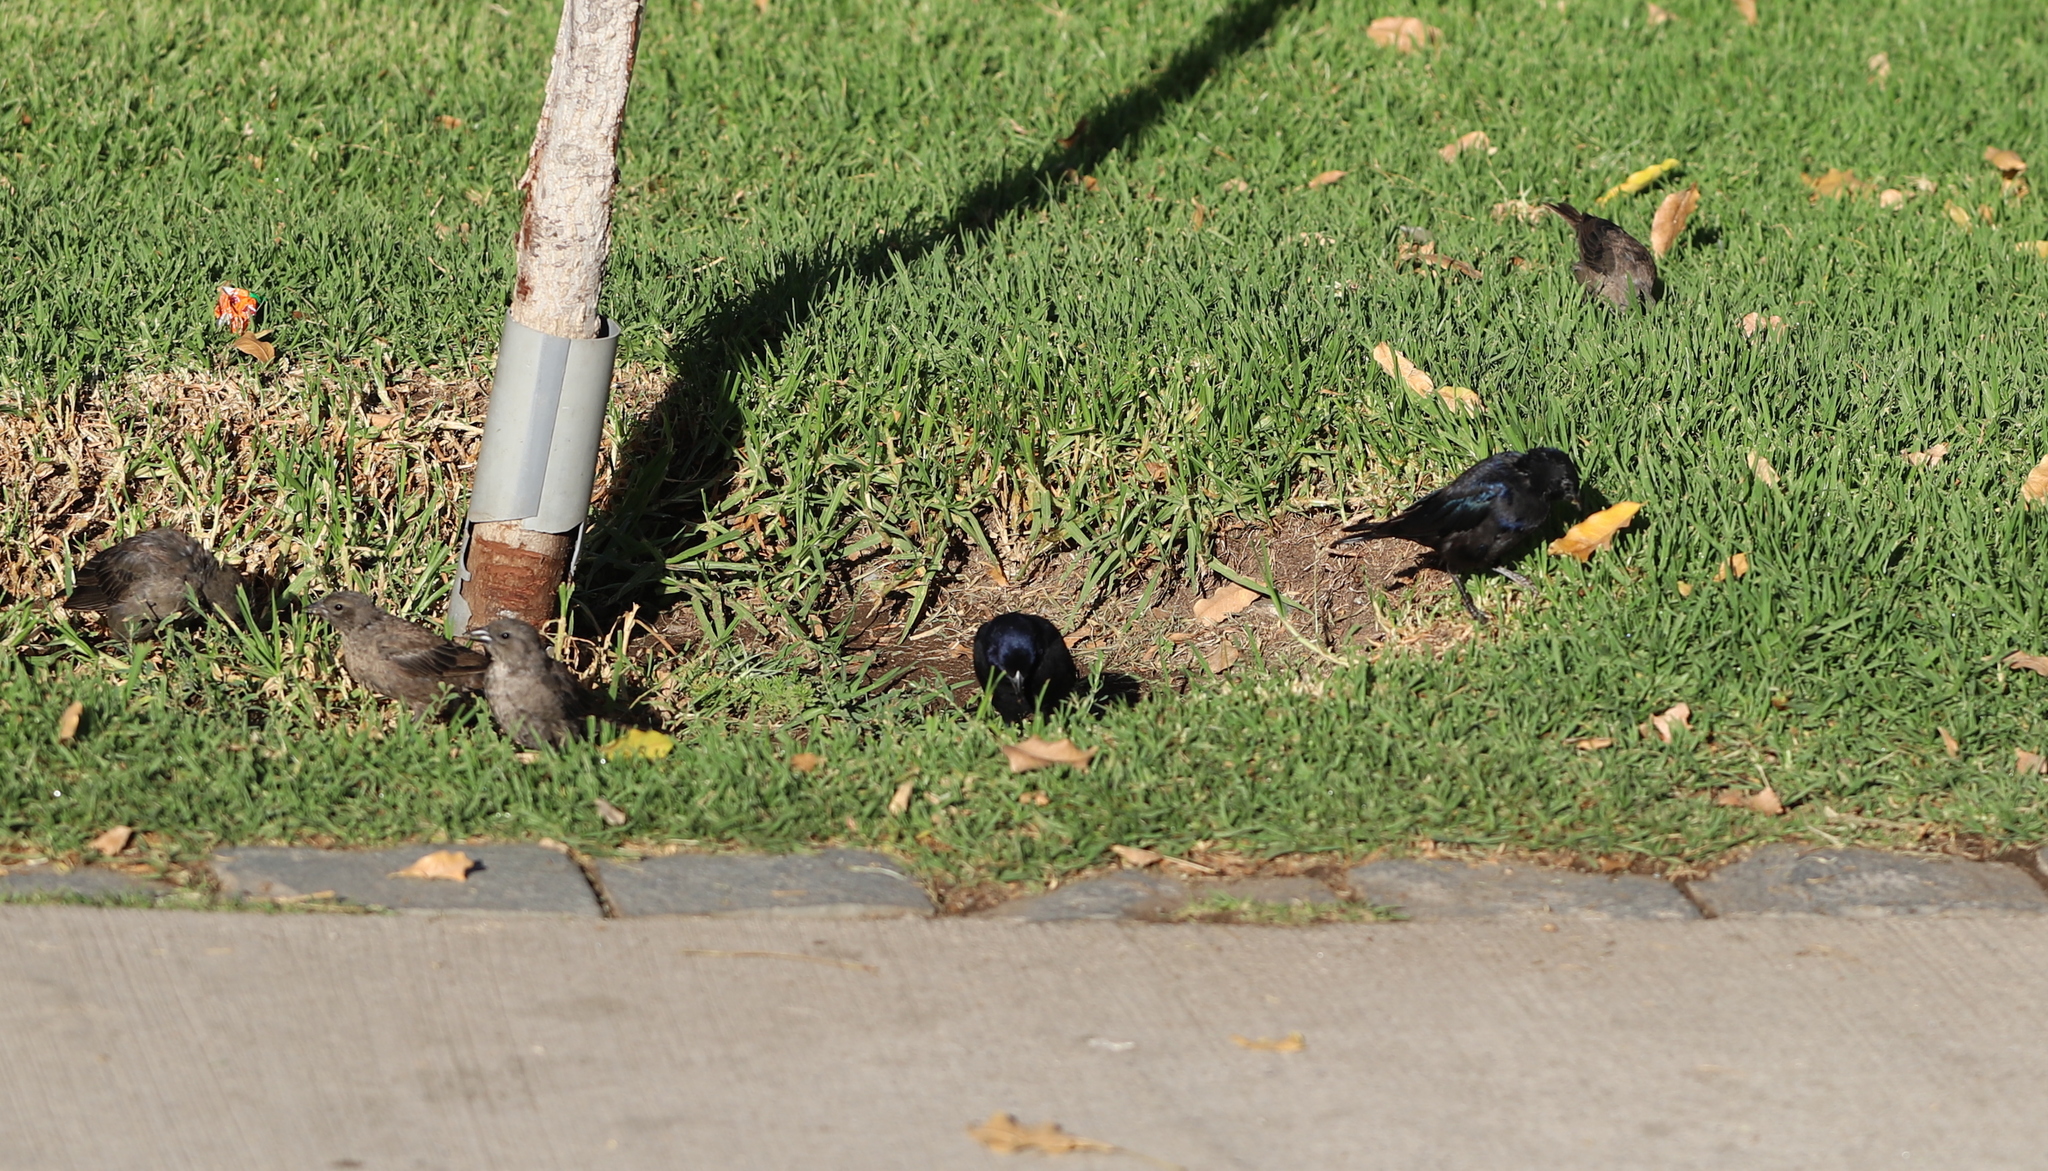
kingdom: Animalia
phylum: Chordata
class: Aves
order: Passeriformes
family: Icteridae
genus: Molothrus
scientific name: Molothrus bonariensis
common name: Shiny cowbird
